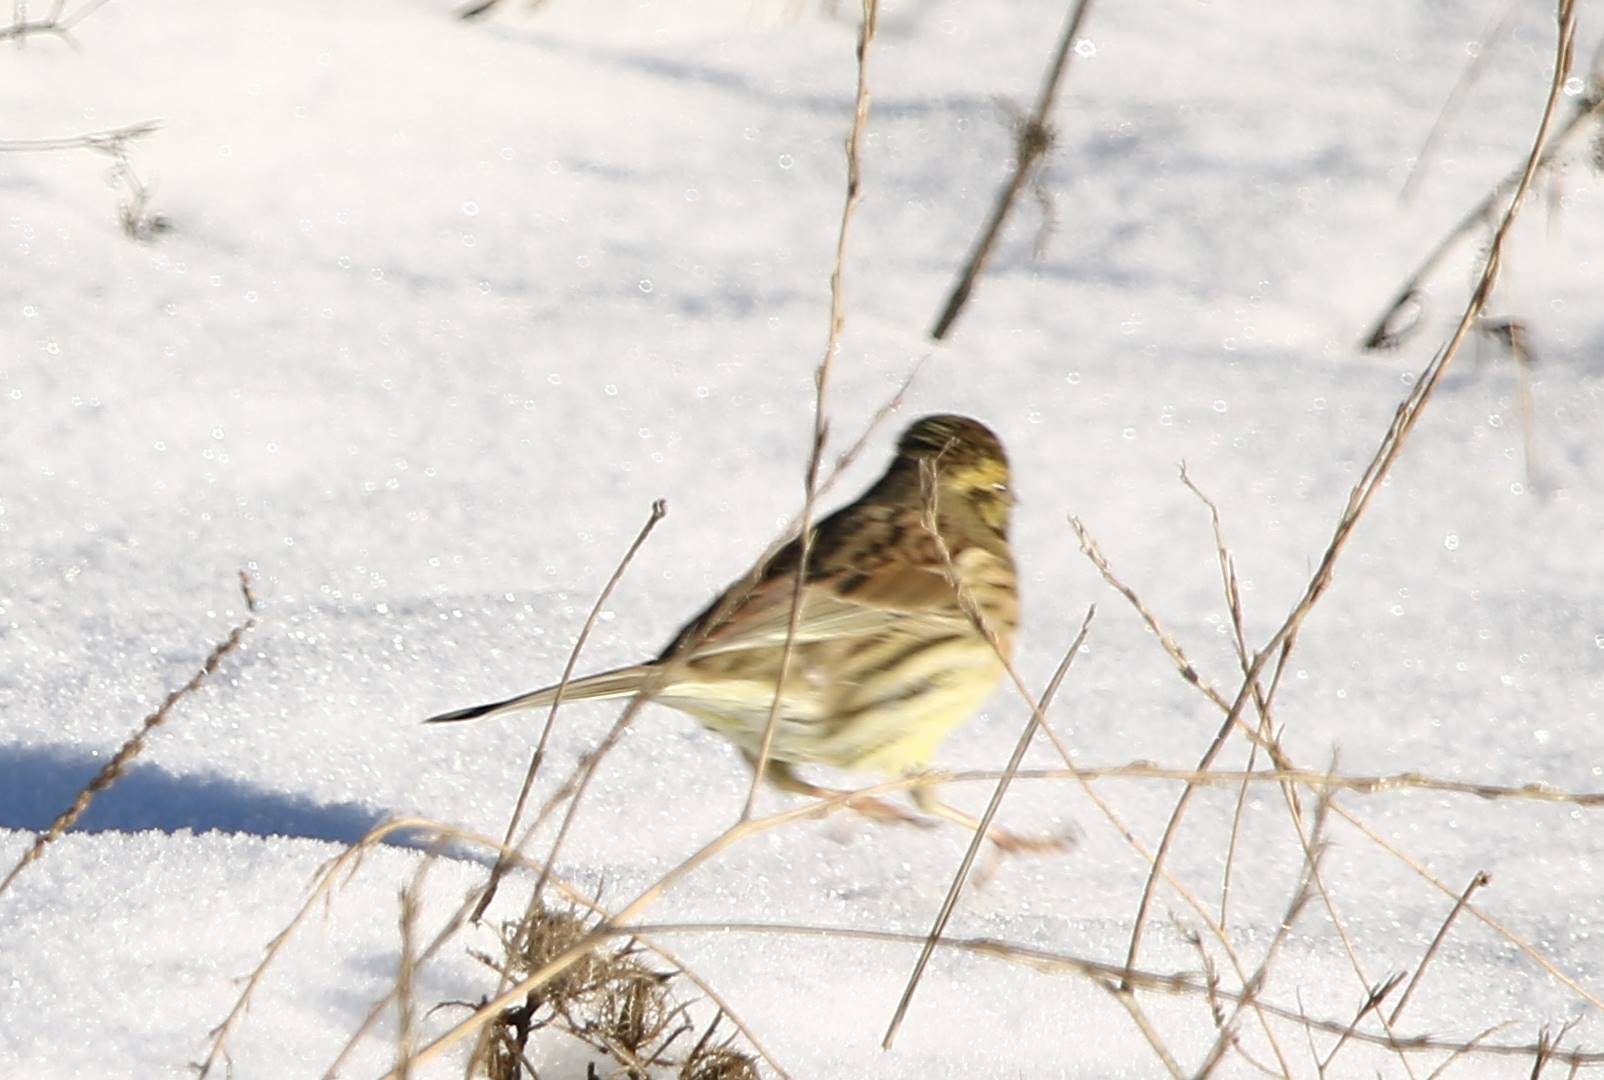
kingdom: Animalia
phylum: Chordata
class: Aves
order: Passeriformes
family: Emberizidae
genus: Emberiza
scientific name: Emberiza cirlus
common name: Cirl bunting
